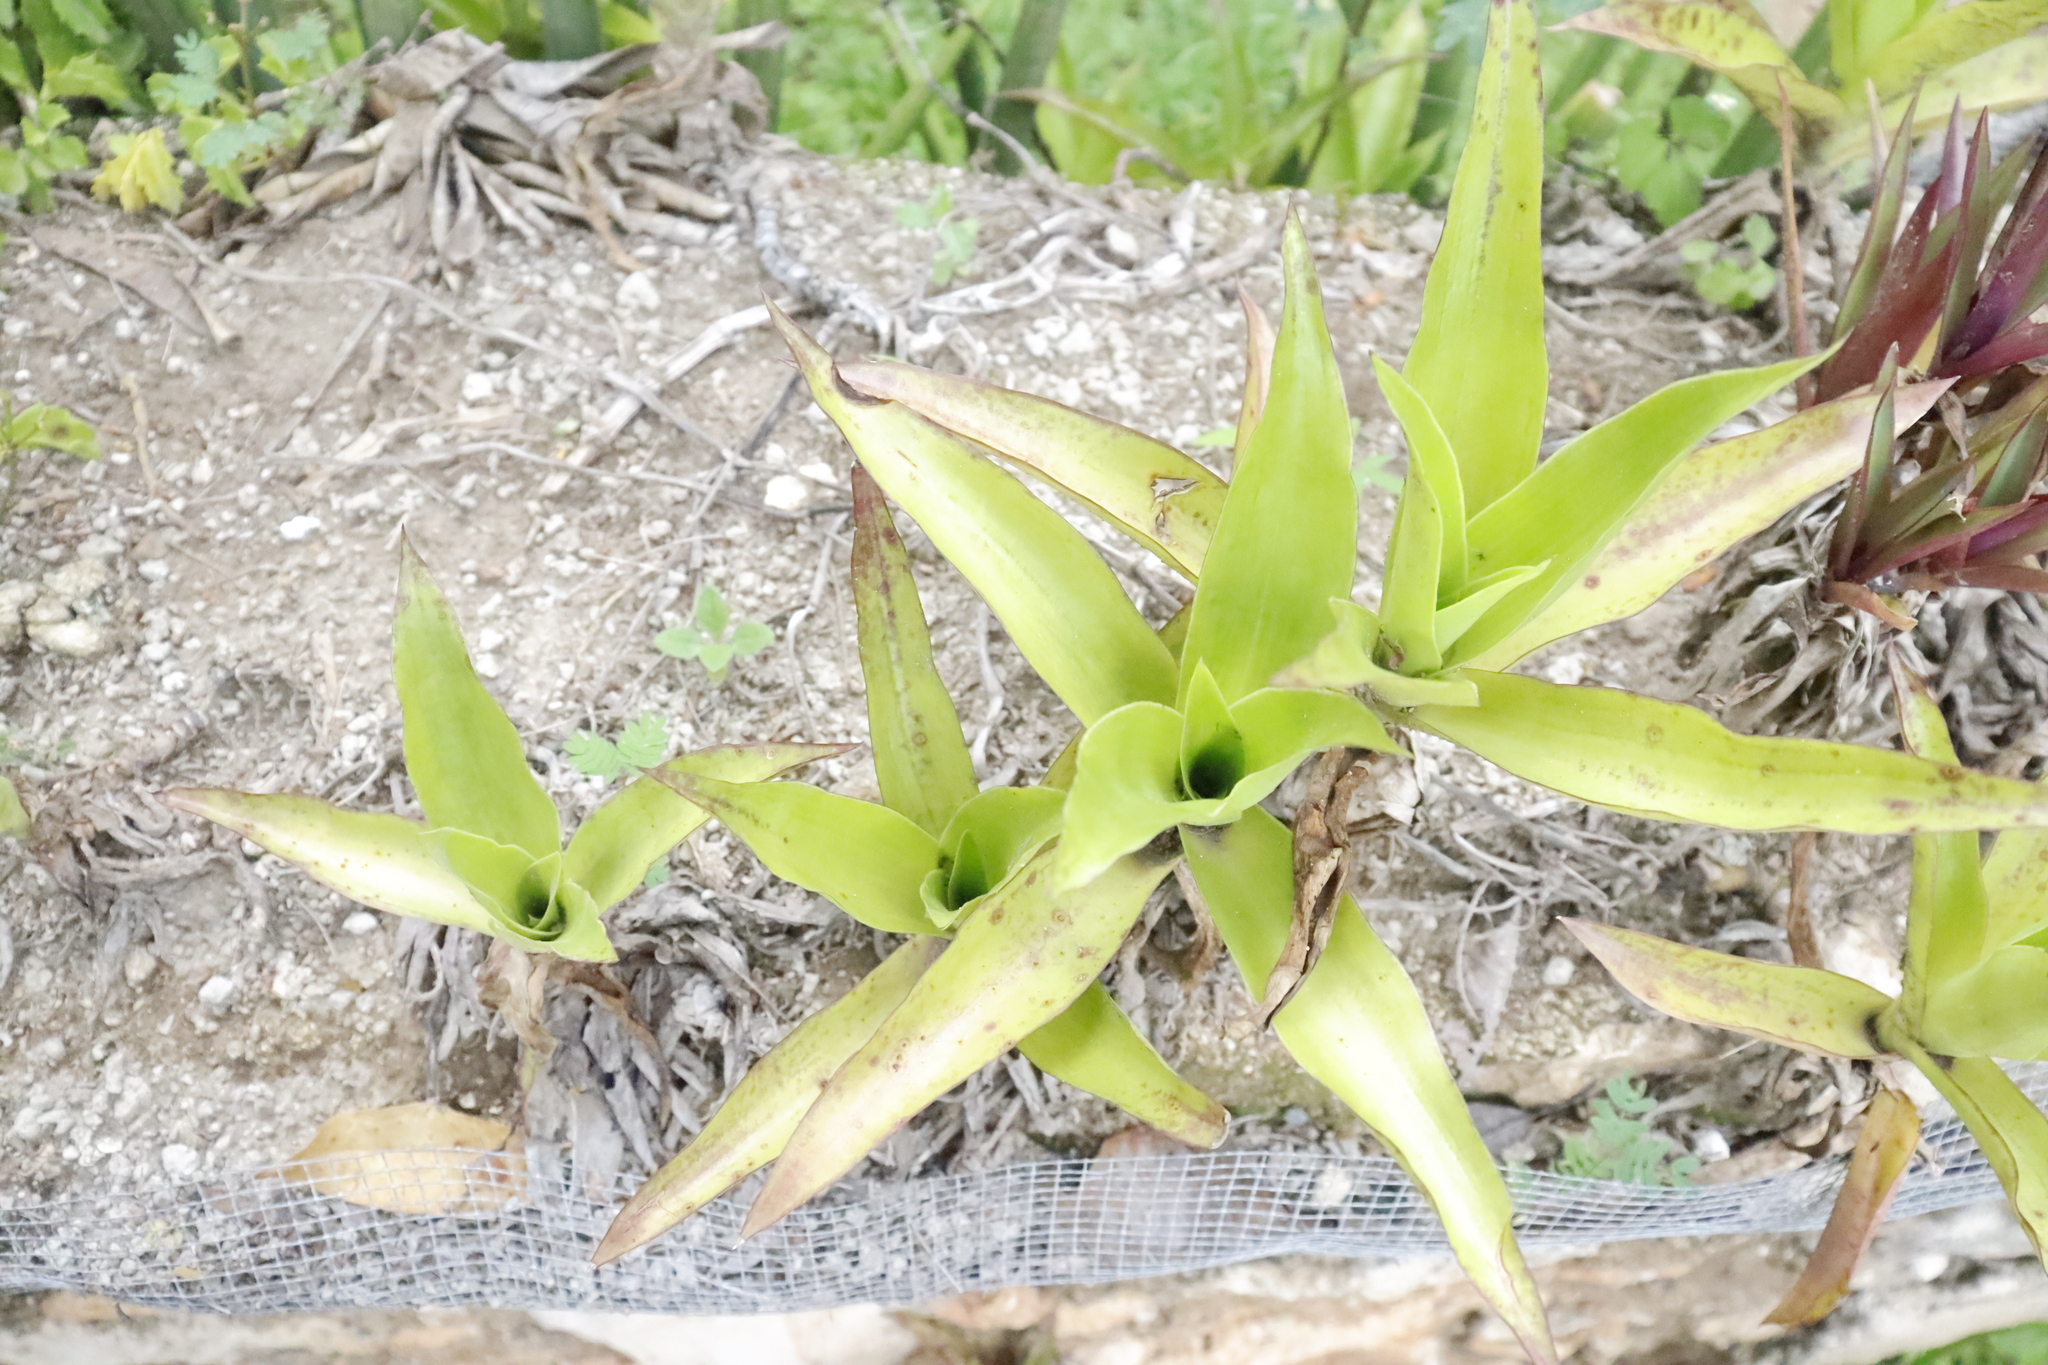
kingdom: Plantae
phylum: Tracheophyta
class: Liliopsida
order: Commelinales
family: Commelinaceae
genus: Callisia
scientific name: Callisia fragrans
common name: Basketplant
